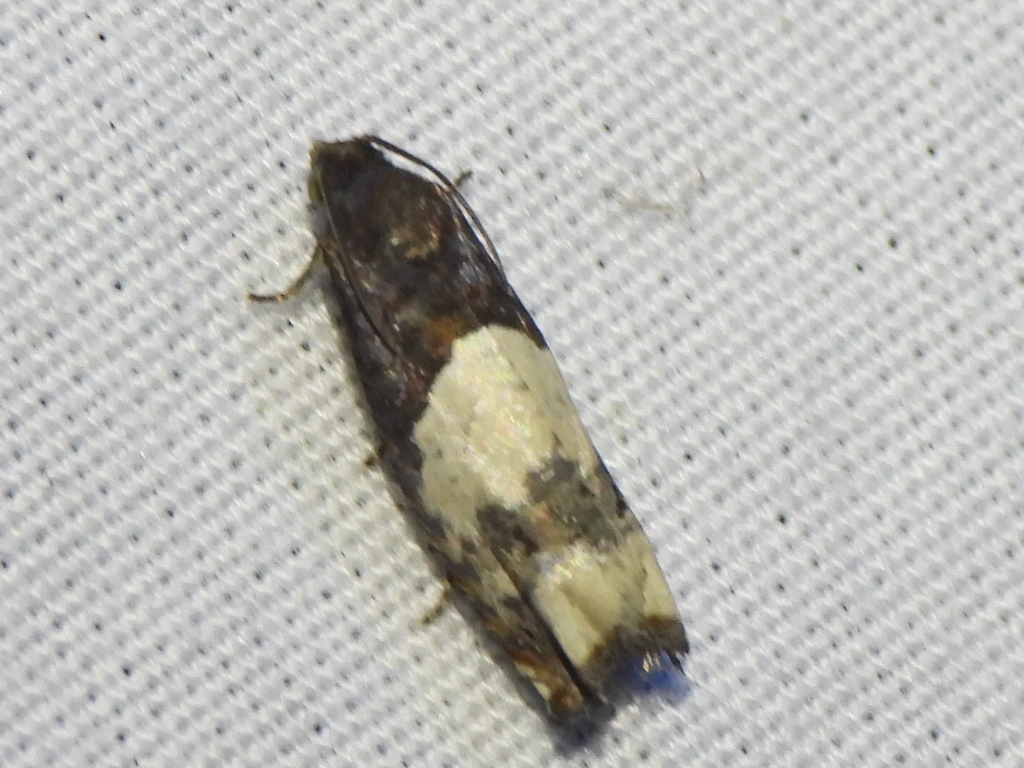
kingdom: Animalia
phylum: Arthropoda
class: Insecta
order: Lepidoptera
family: Tortricidae
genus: Epiblema
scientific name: Epiblema scudderiana
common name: Goldenrod gall moth
